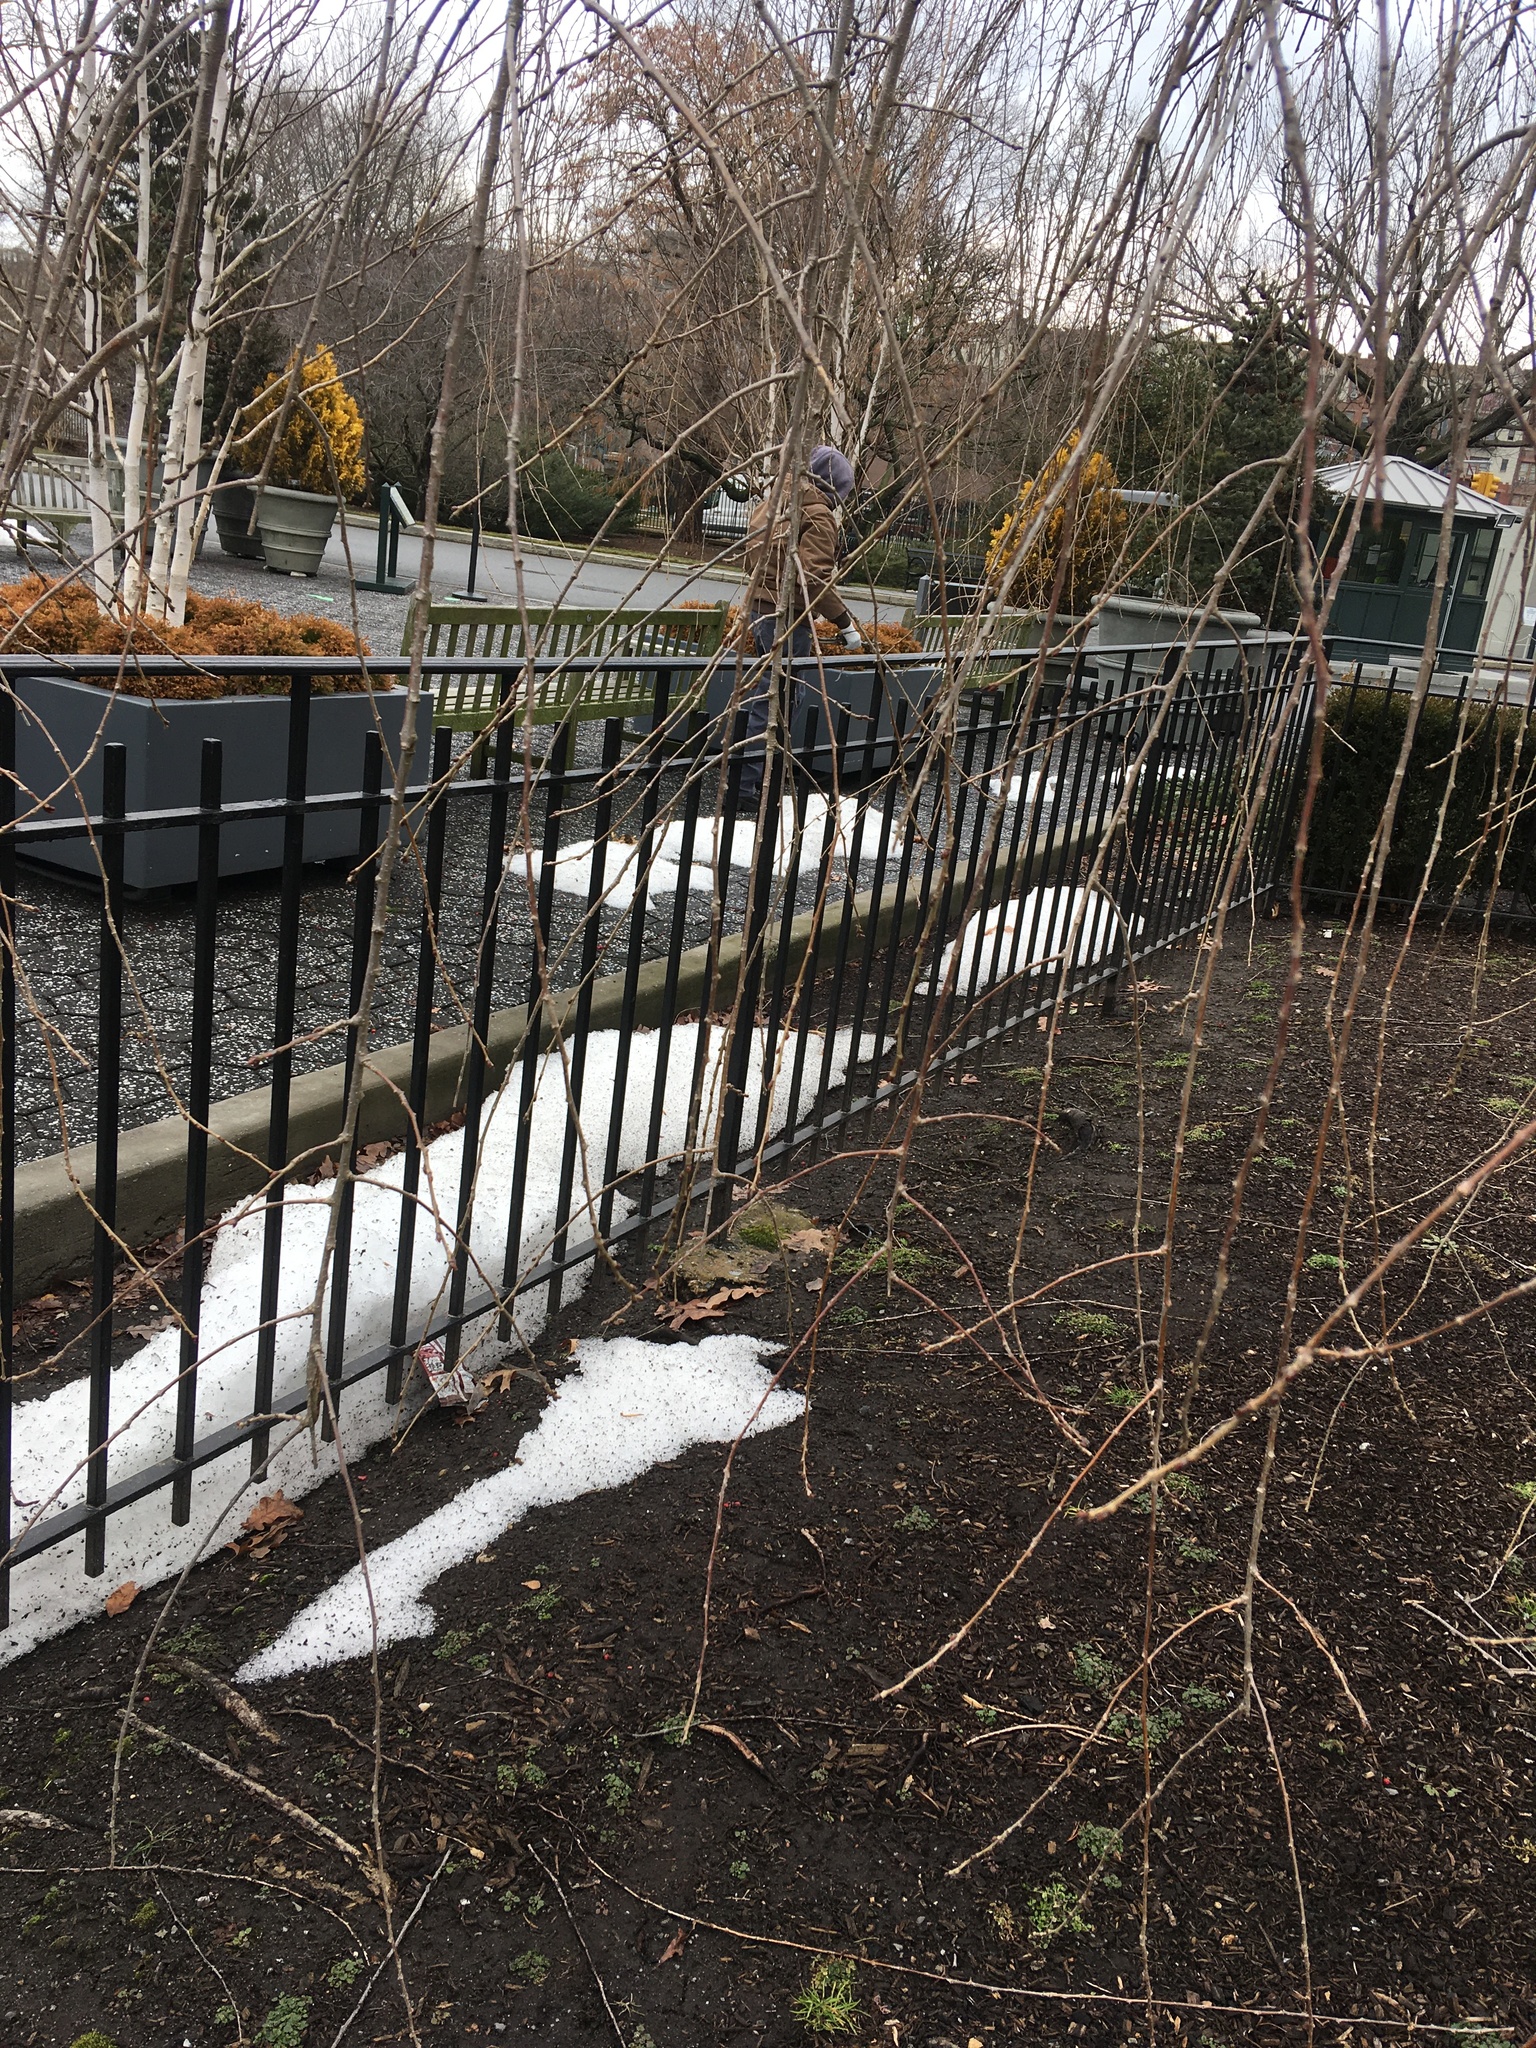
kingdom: Plantae
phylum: Marchantiophyta
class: Marchantiopsida
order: Marchantiales
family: Marchantiaceae
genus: Marchantia
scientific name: Marchantia polymorpha
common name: Common liverwort
